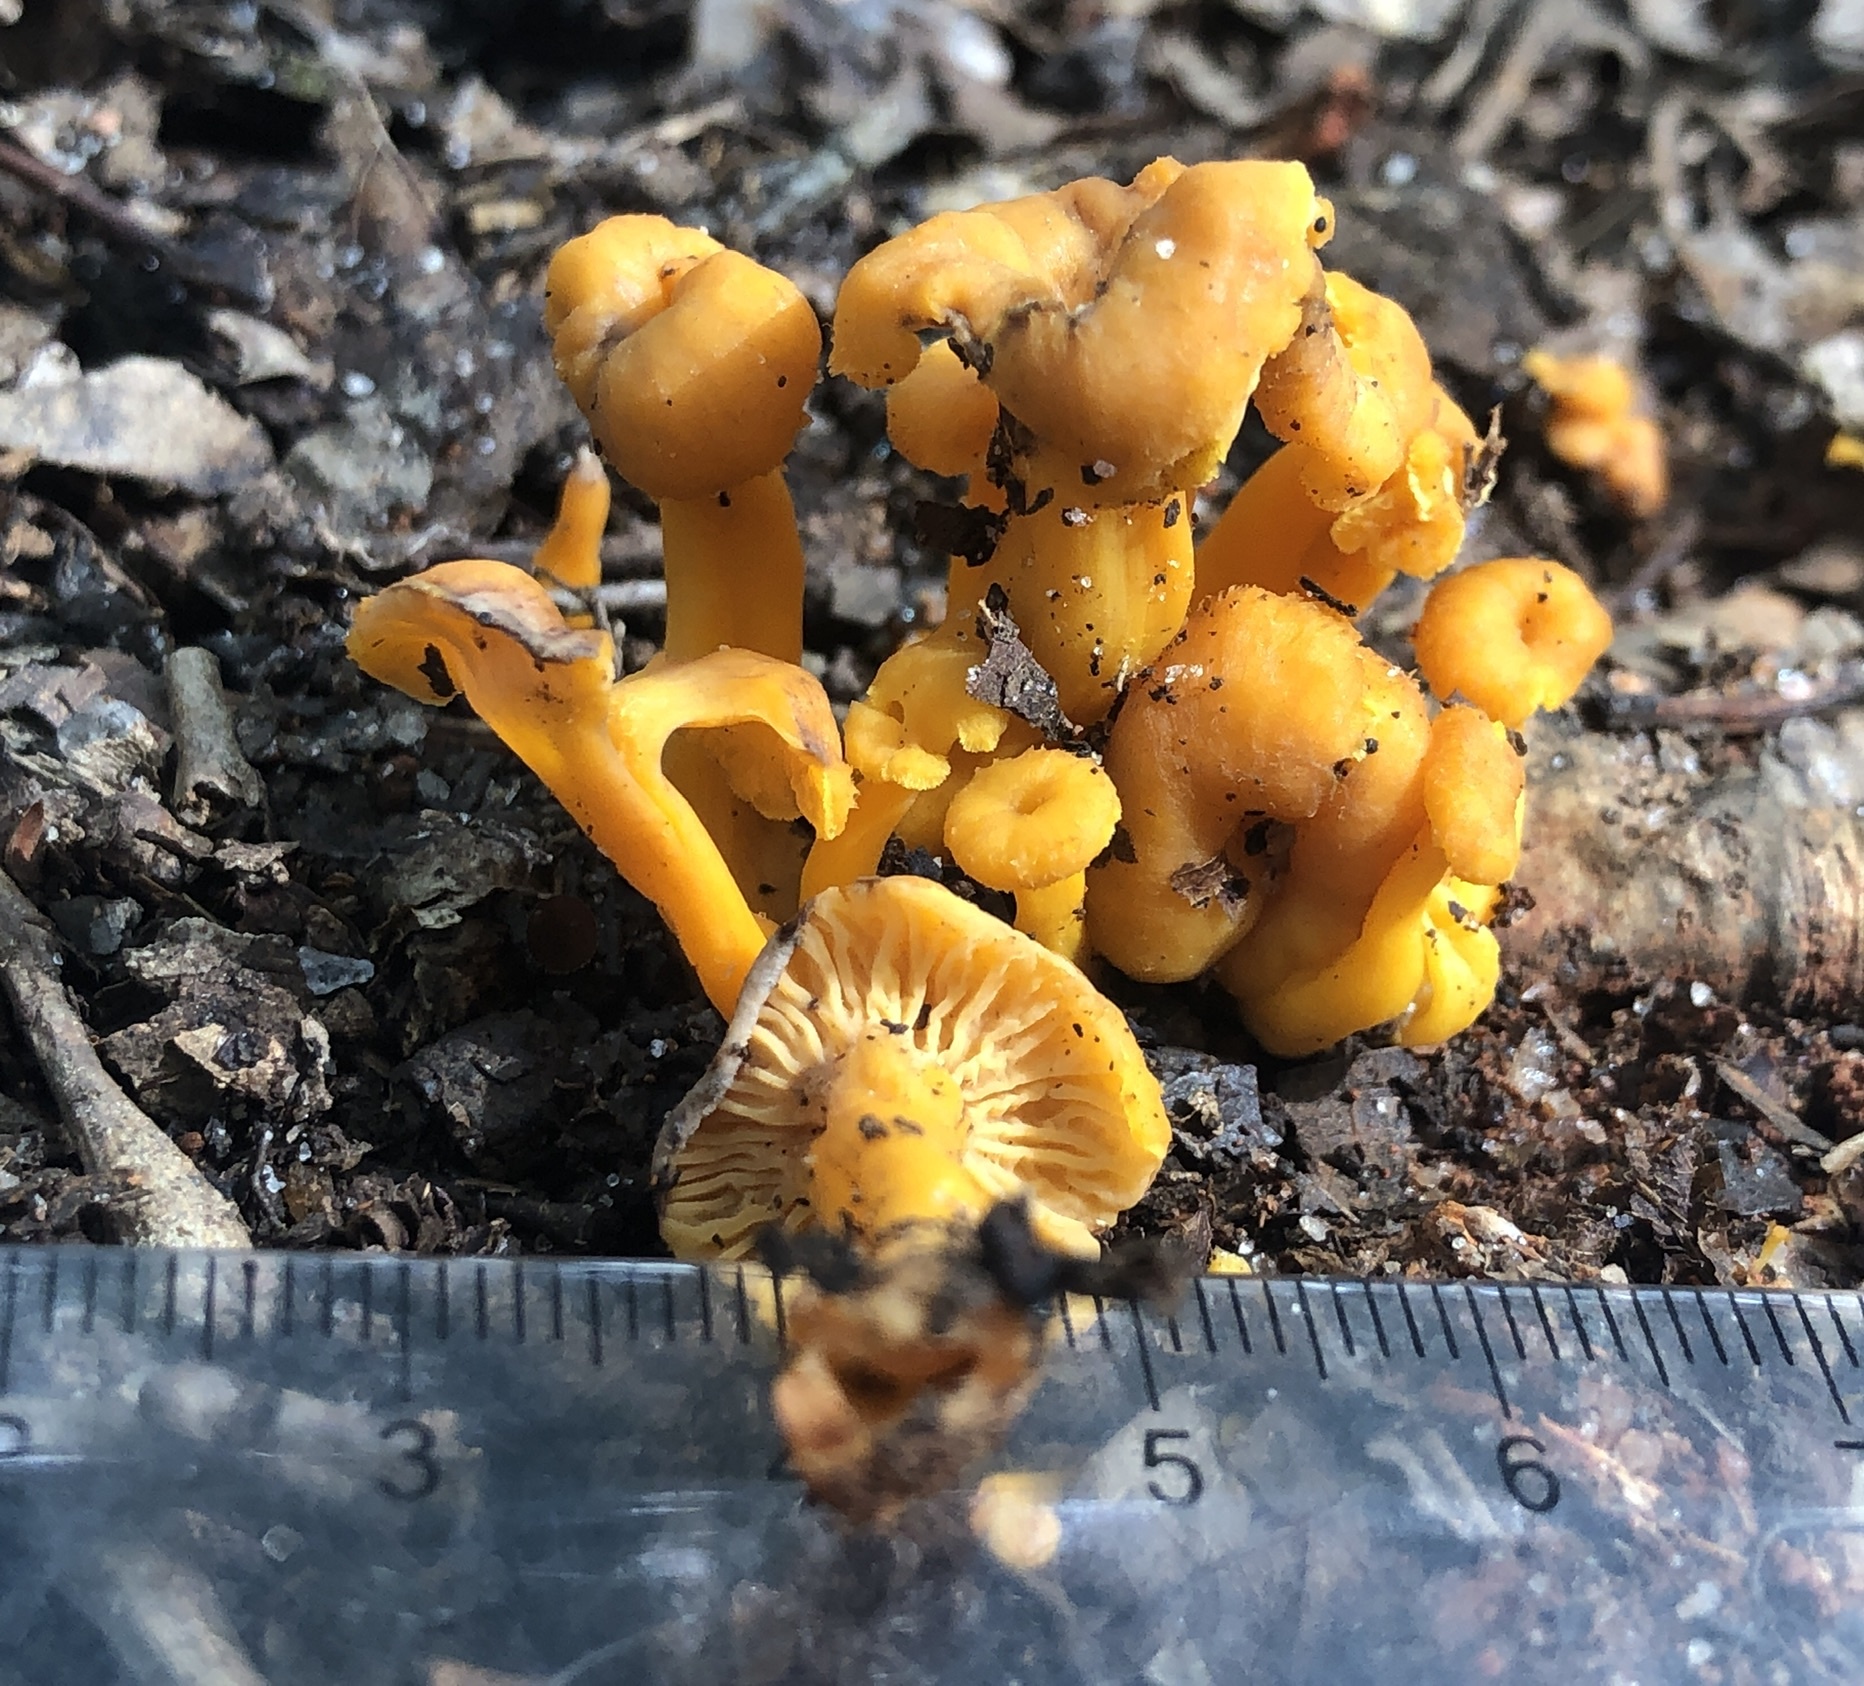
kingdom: Fungi
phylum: Basidiomycota
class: Agaricomycetes
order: Cantharellales
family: Hydnaceae
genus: Craterellus
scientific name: Craterellus ignicolor
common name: Flame chanterelle
